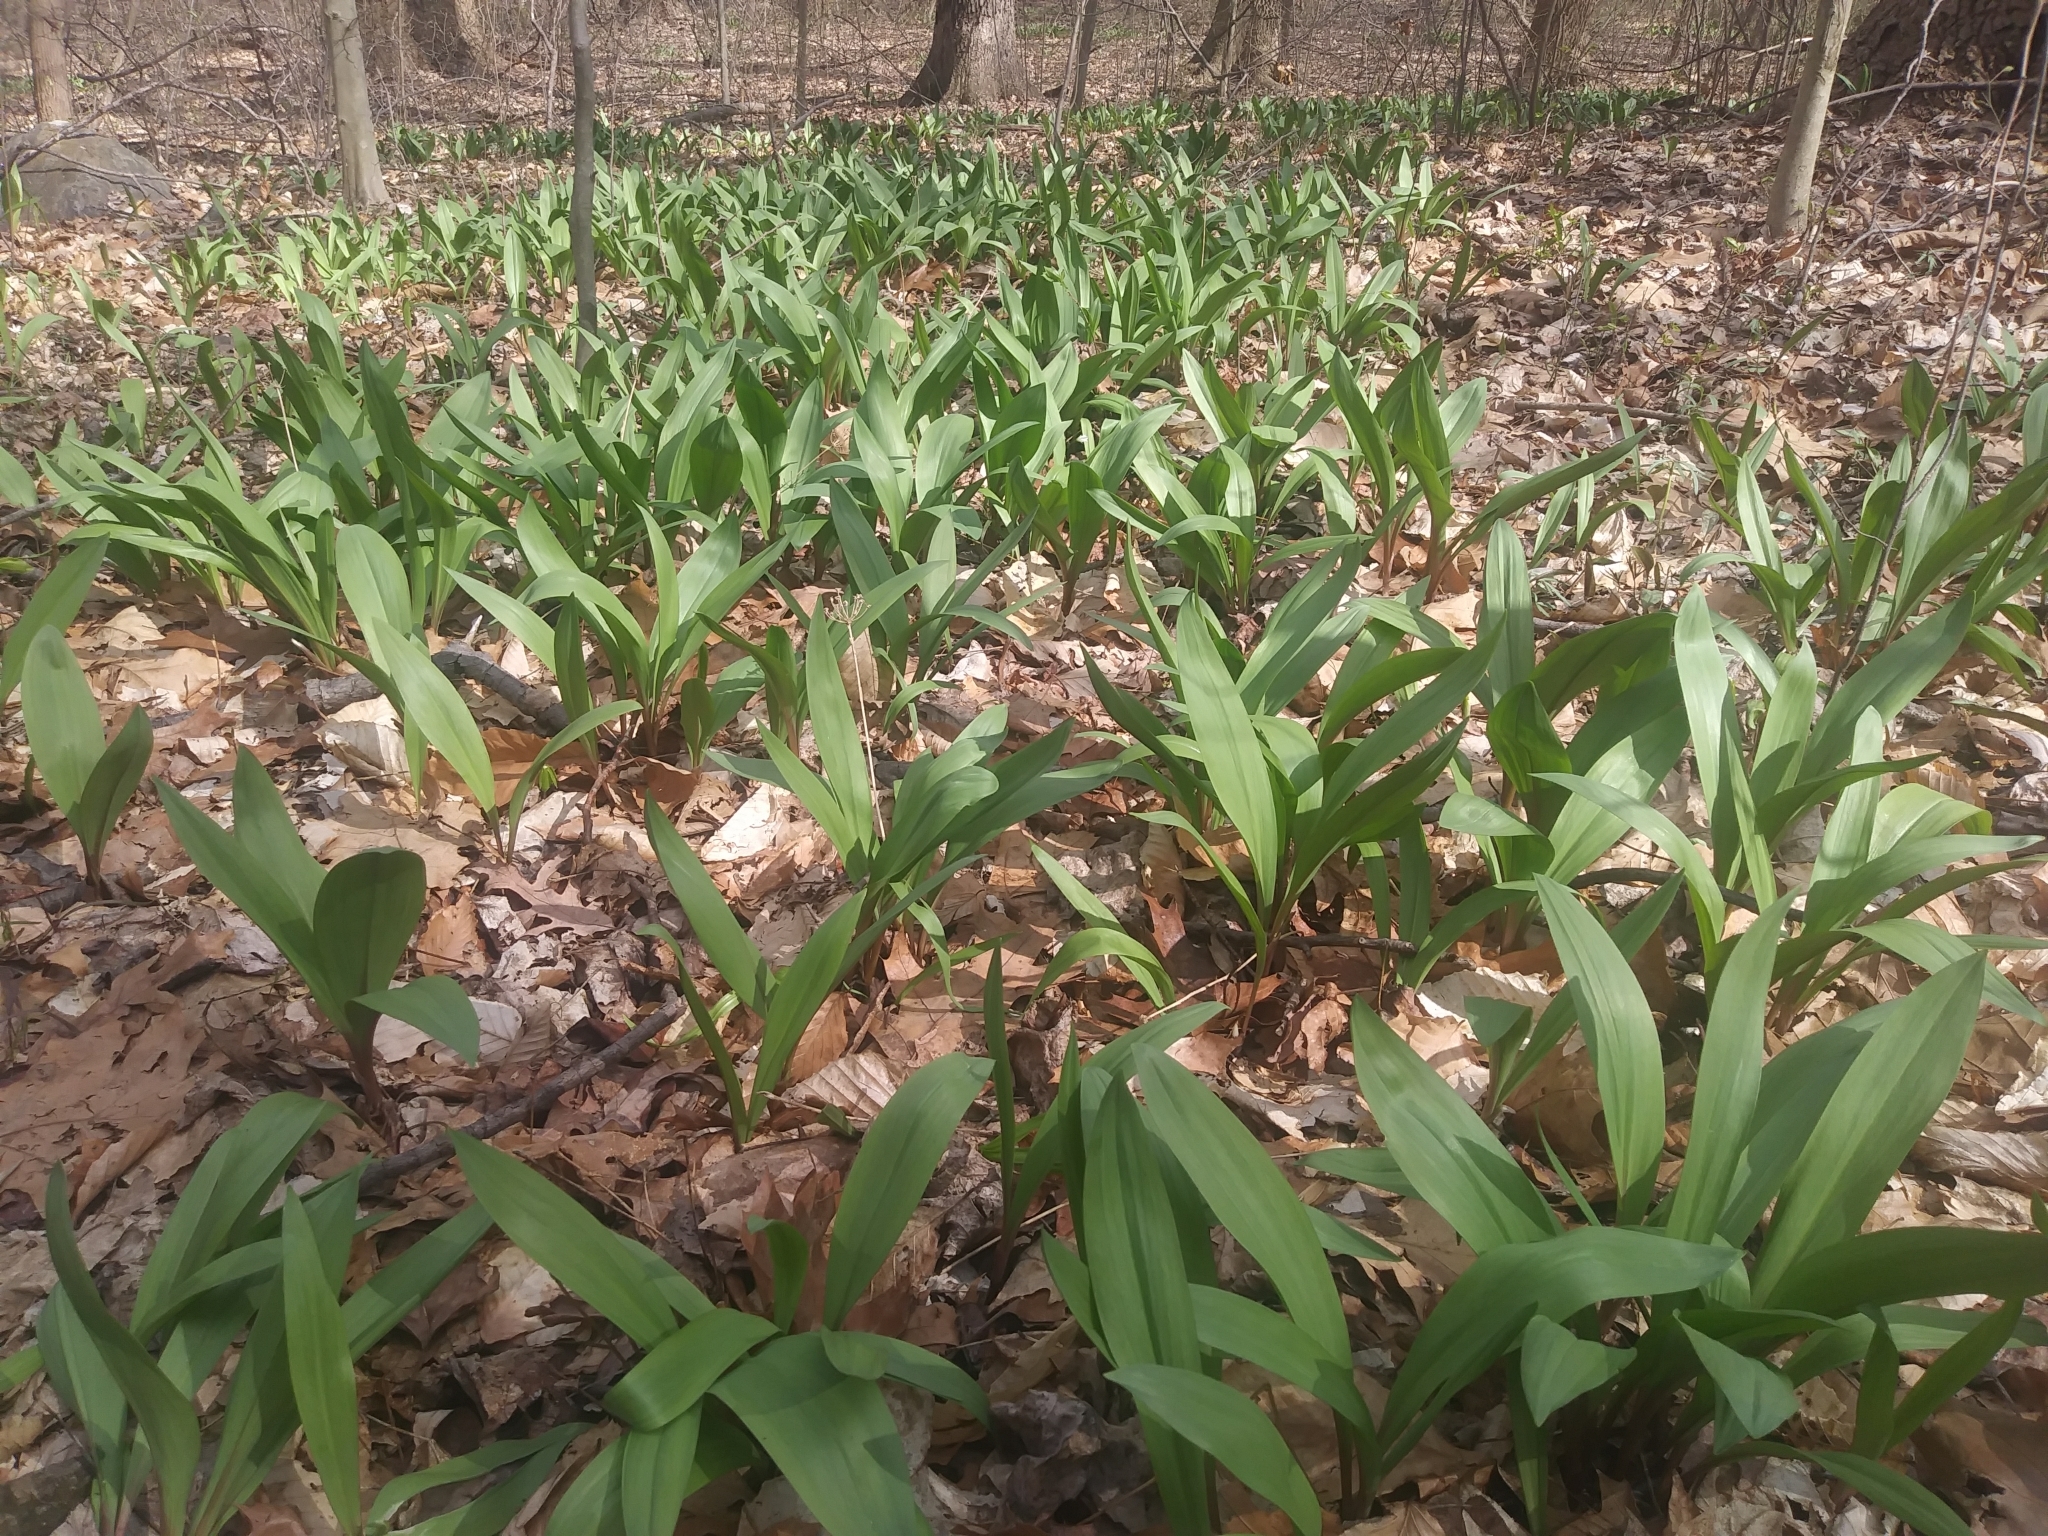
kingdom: Plantae
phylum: Tracheophyta
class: Liliopsida
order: Asparagales
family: Amaryllidaceae
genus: Allium
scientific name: Allium tricoccum
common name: Ramp
